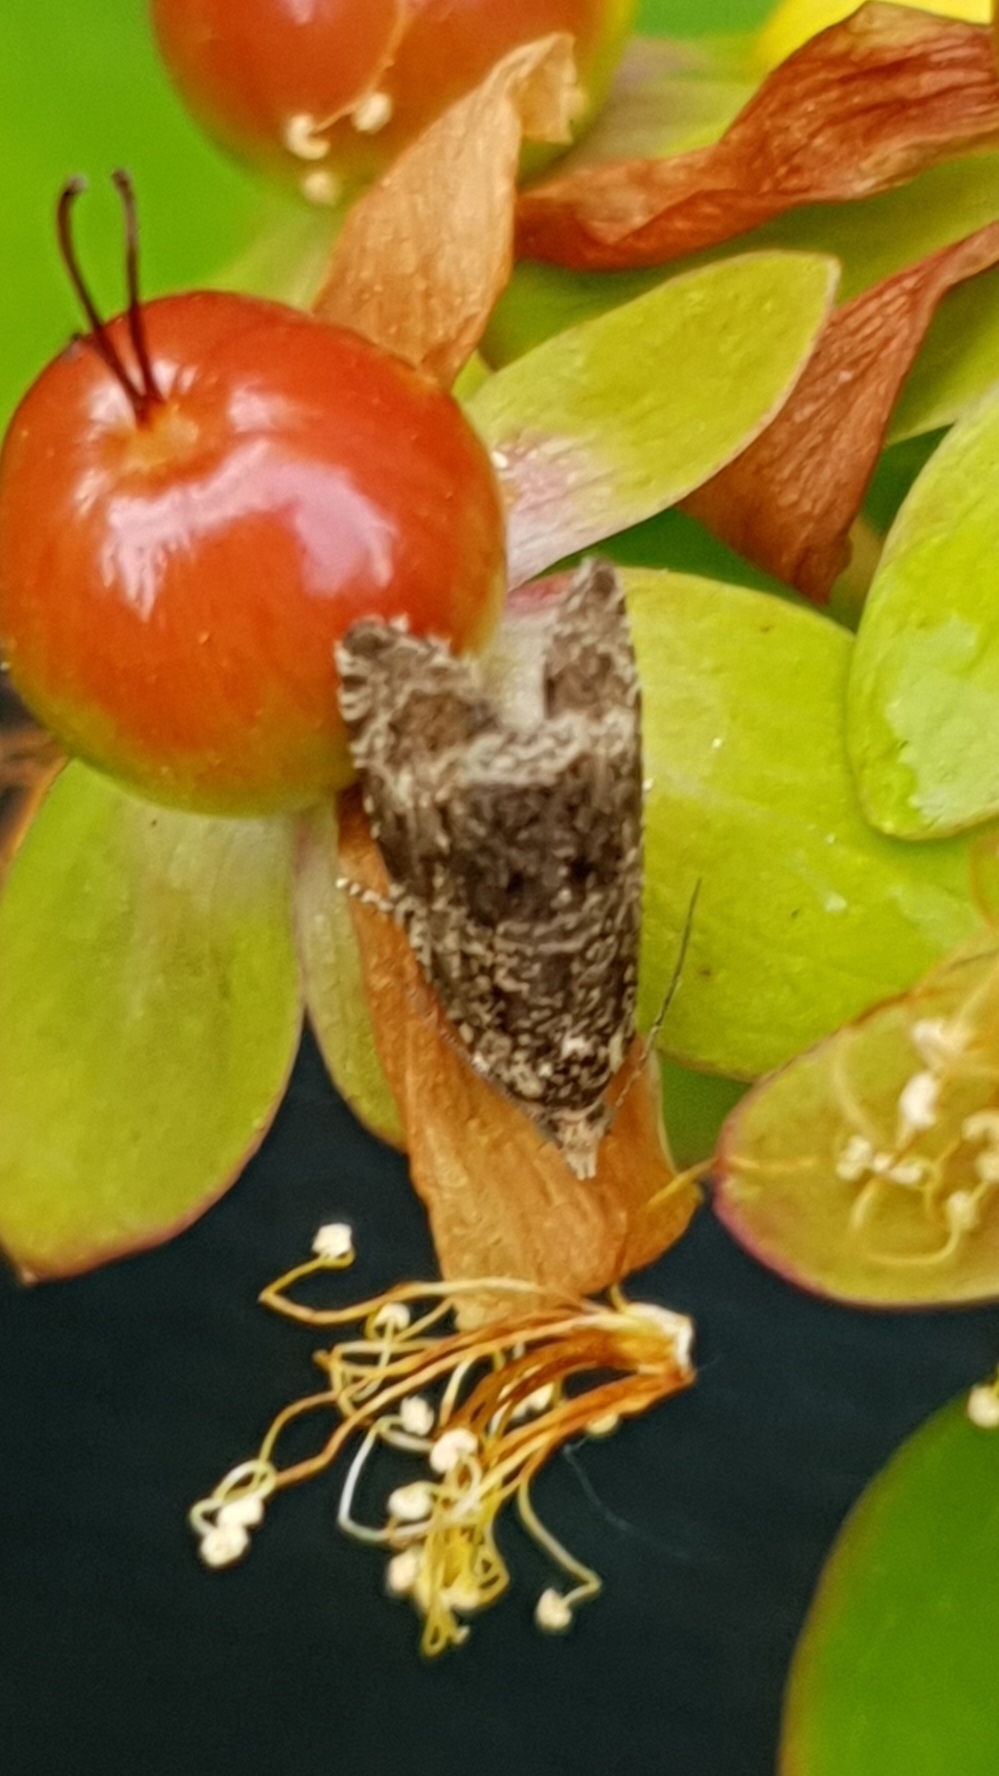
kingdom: Animalia
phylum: Arthropoda
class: Insecta
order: Lepidoptera
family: Tortricidae
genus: Syricoris
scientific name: Syricoris lacunana
